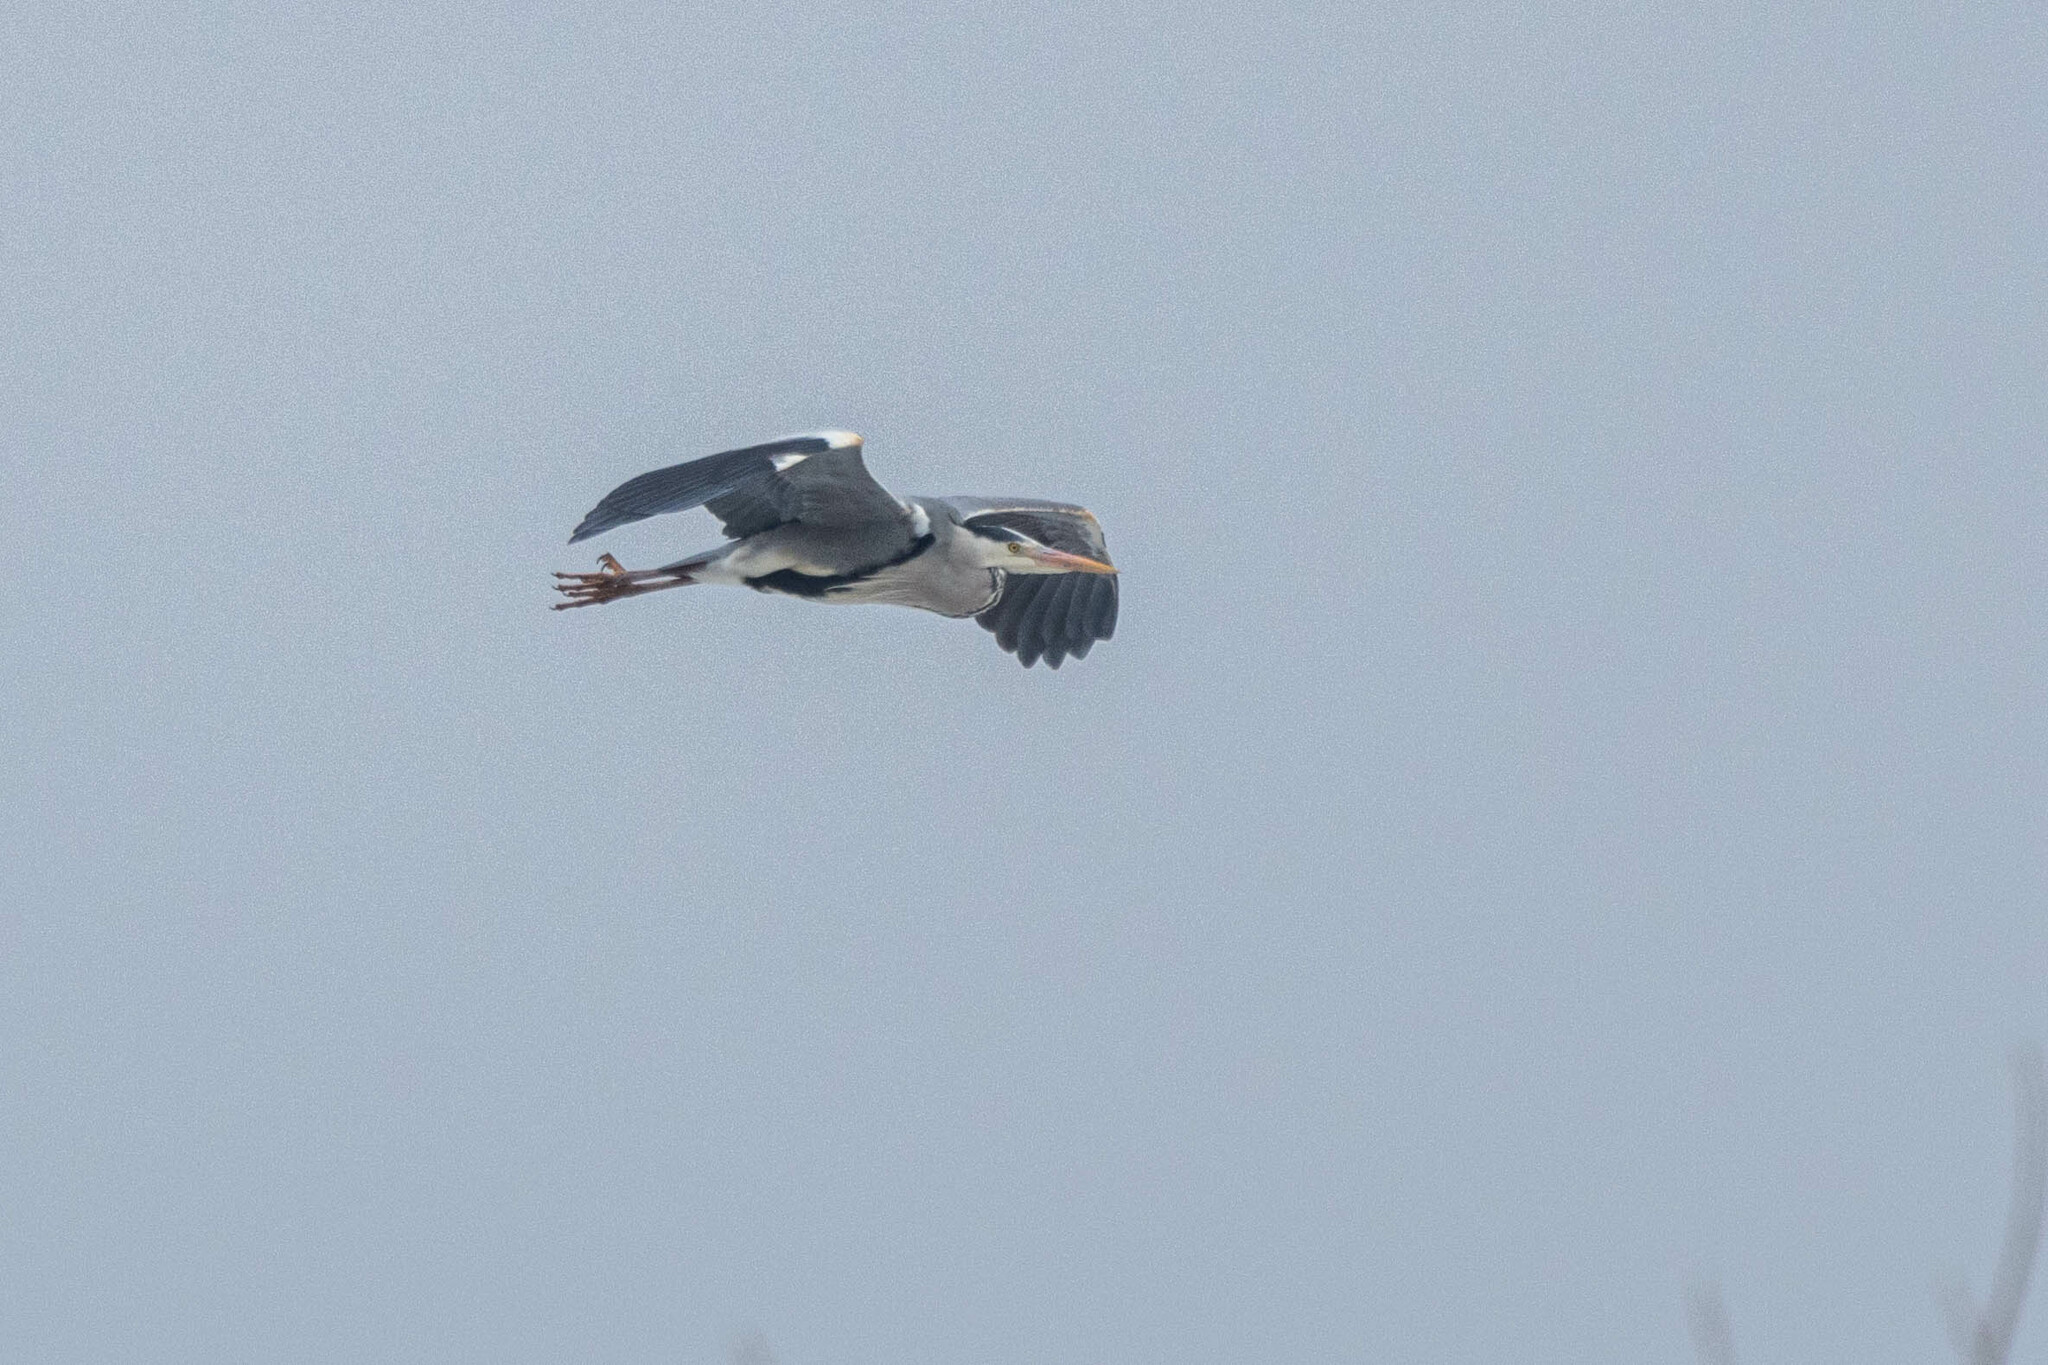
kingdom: Animalia
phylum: Chordata
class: Aves
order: Pelecaniformes
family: Ardeidae
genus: Ardea
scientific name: Ardea cinerea
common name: Grey heron
